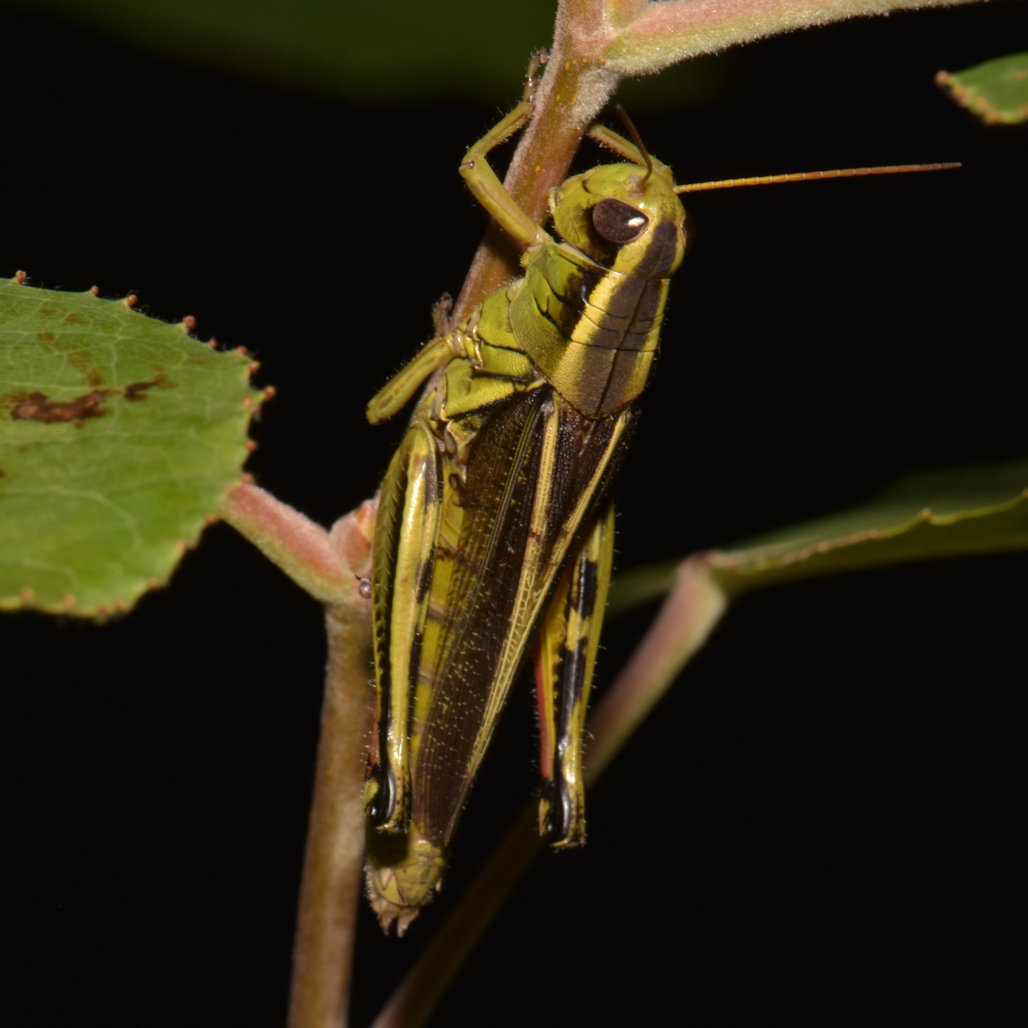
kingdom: Animalia
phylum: Arthropoda
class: Insecta
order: Orthoptera
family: Acrididae
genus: Melanoplus
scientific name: Melanoplus bivittatus
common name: Two-striped grasshopper
